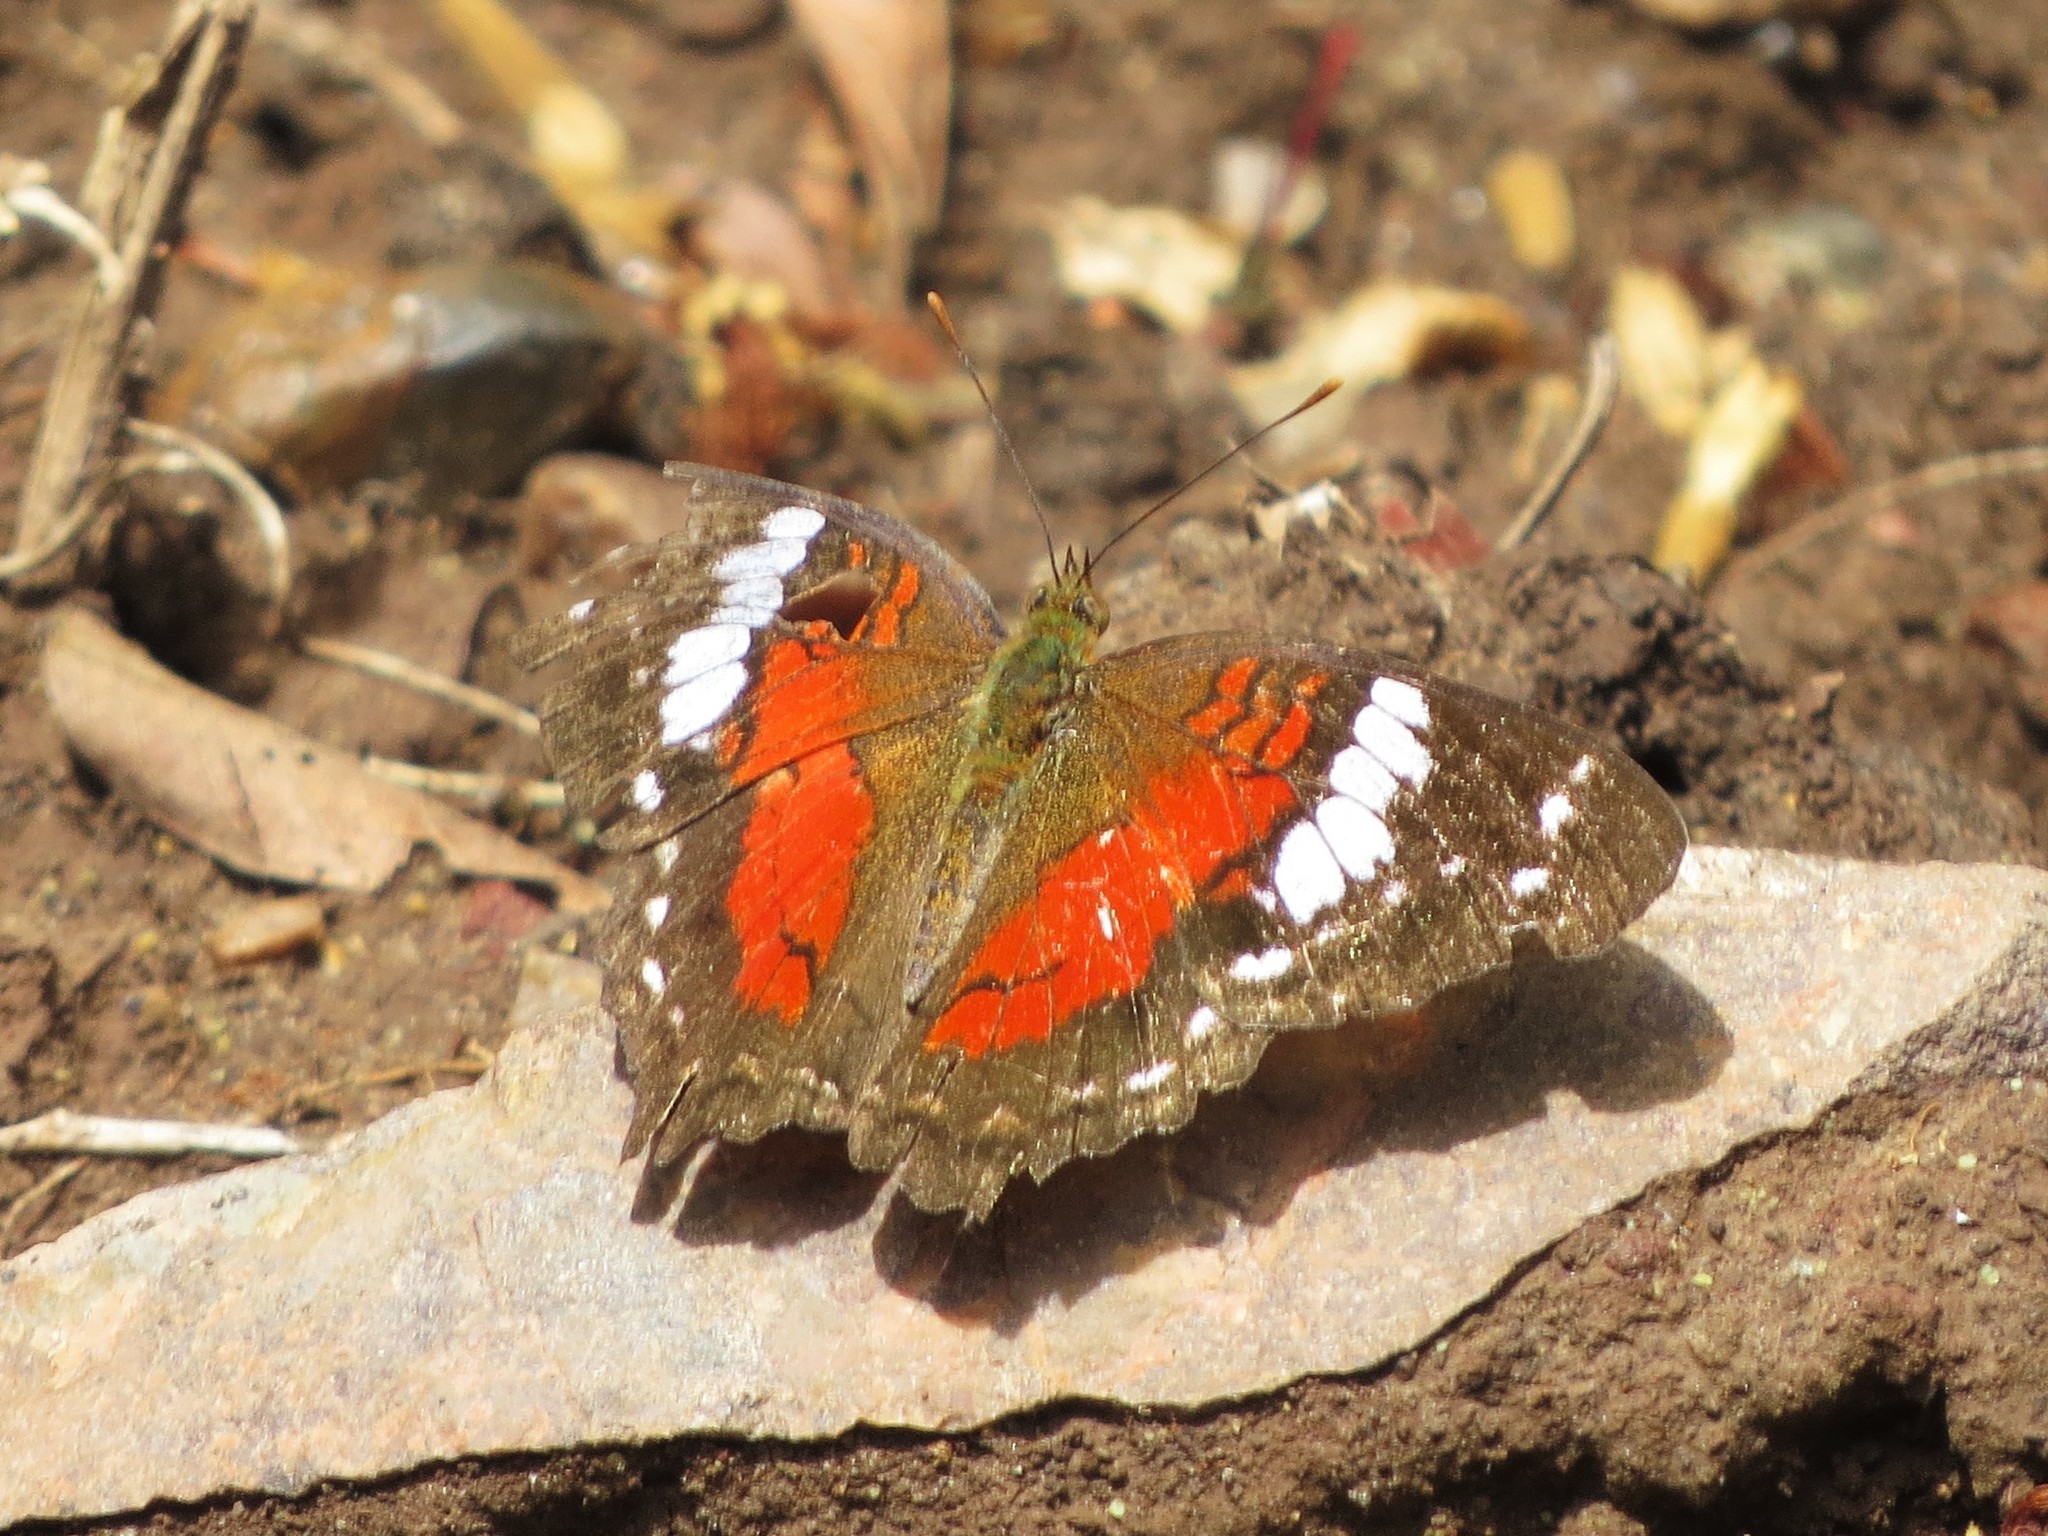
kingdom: Animalia
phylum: Arthropoda
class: Insecta
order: Lepidoptera
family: Nymphalidae
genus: Anartia
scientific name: Anartia amathea
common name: Red peacock
